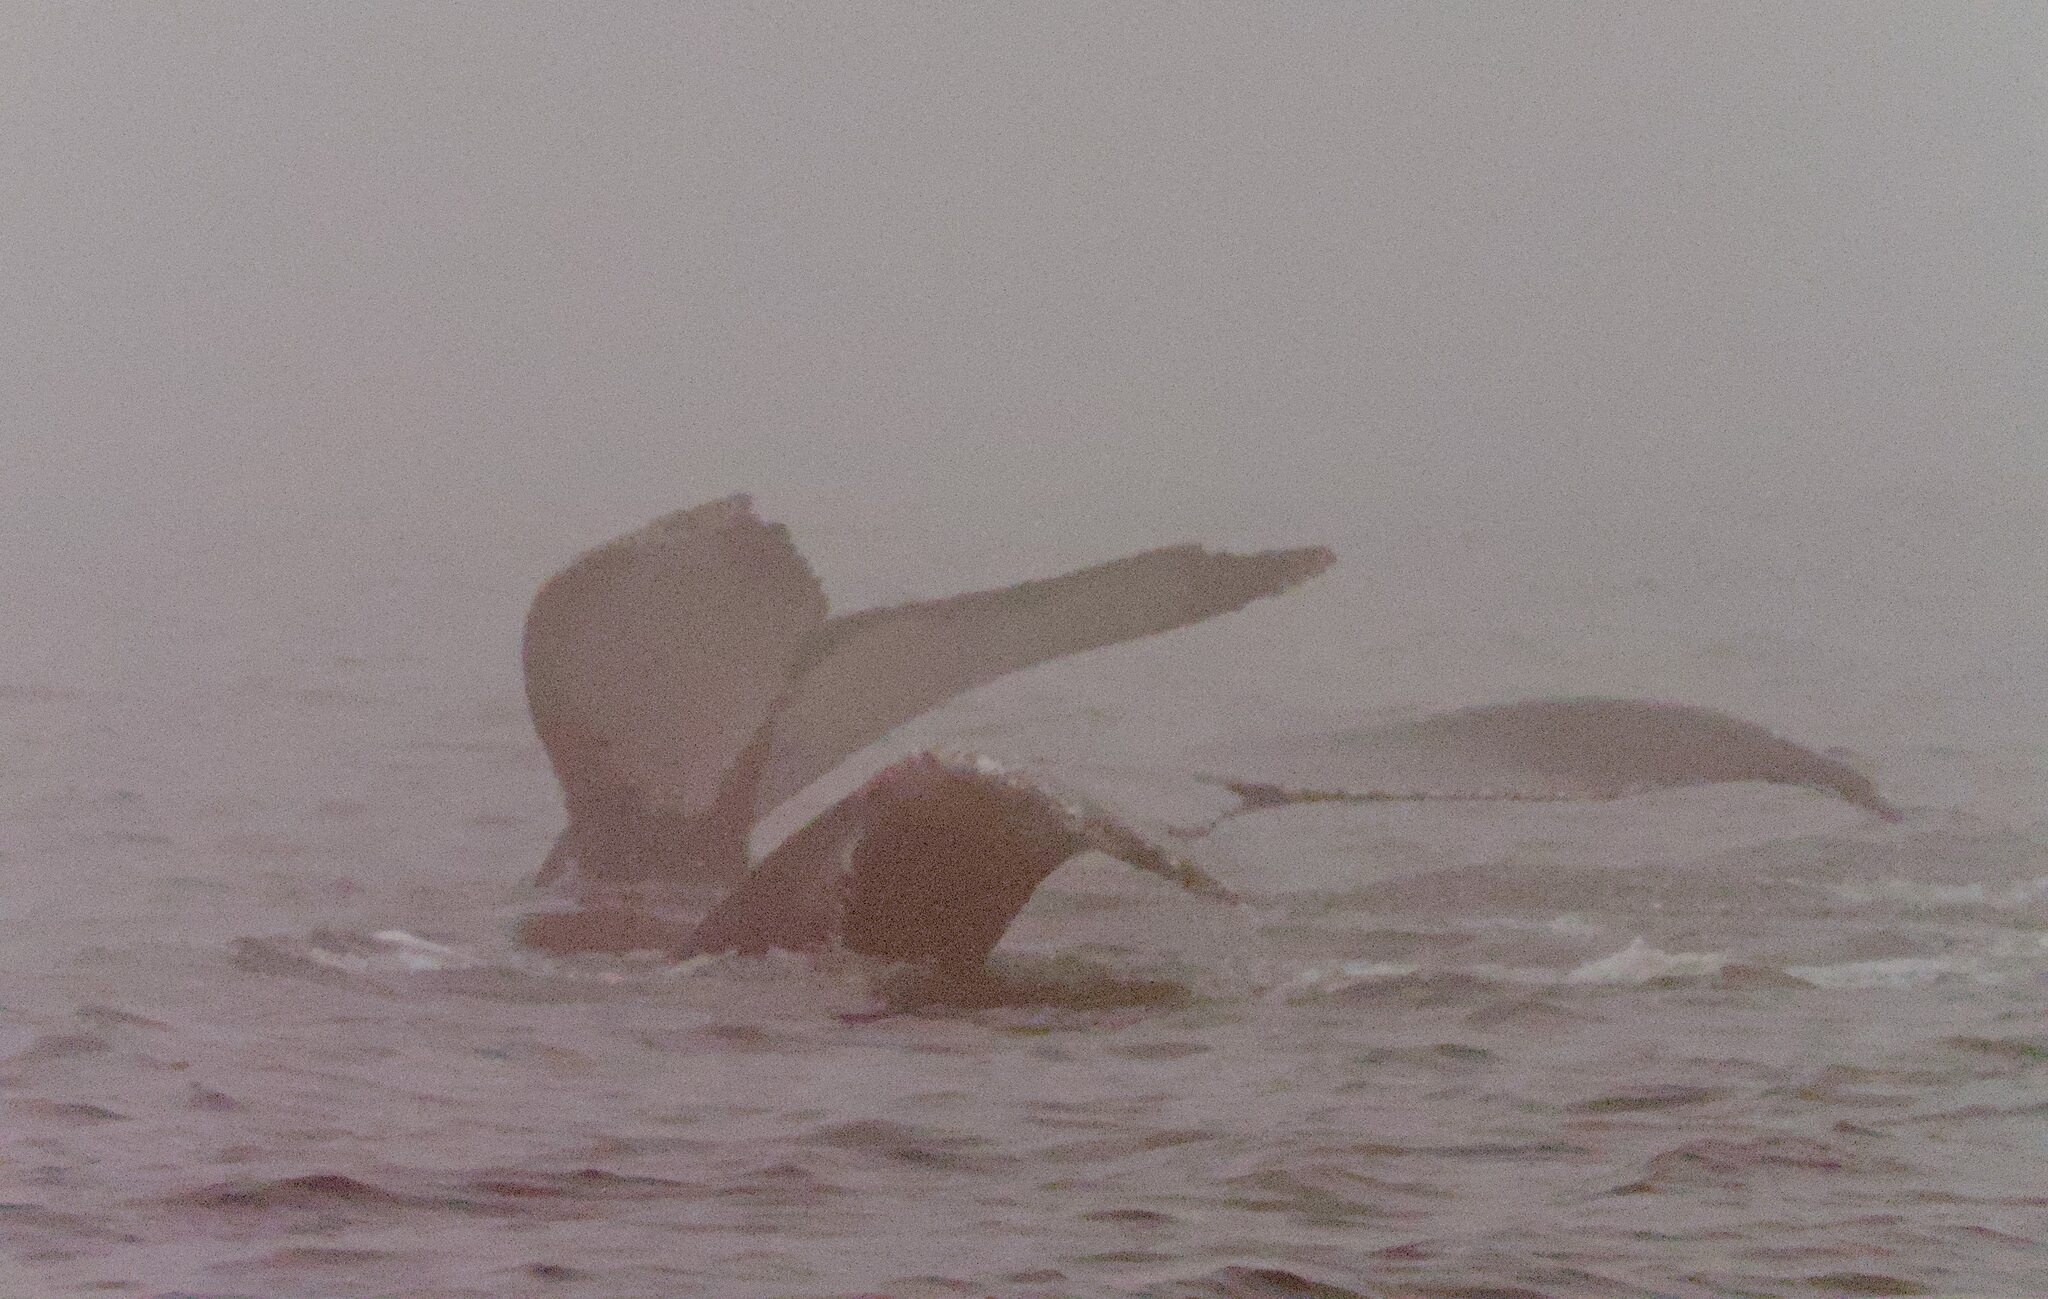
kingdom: Animalia
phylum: Chordata
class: Mammalia
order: Cetacea
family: Balaenopteridae
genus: Megaptera
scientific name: Megaptera novaeangliae
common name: Humpback whale
